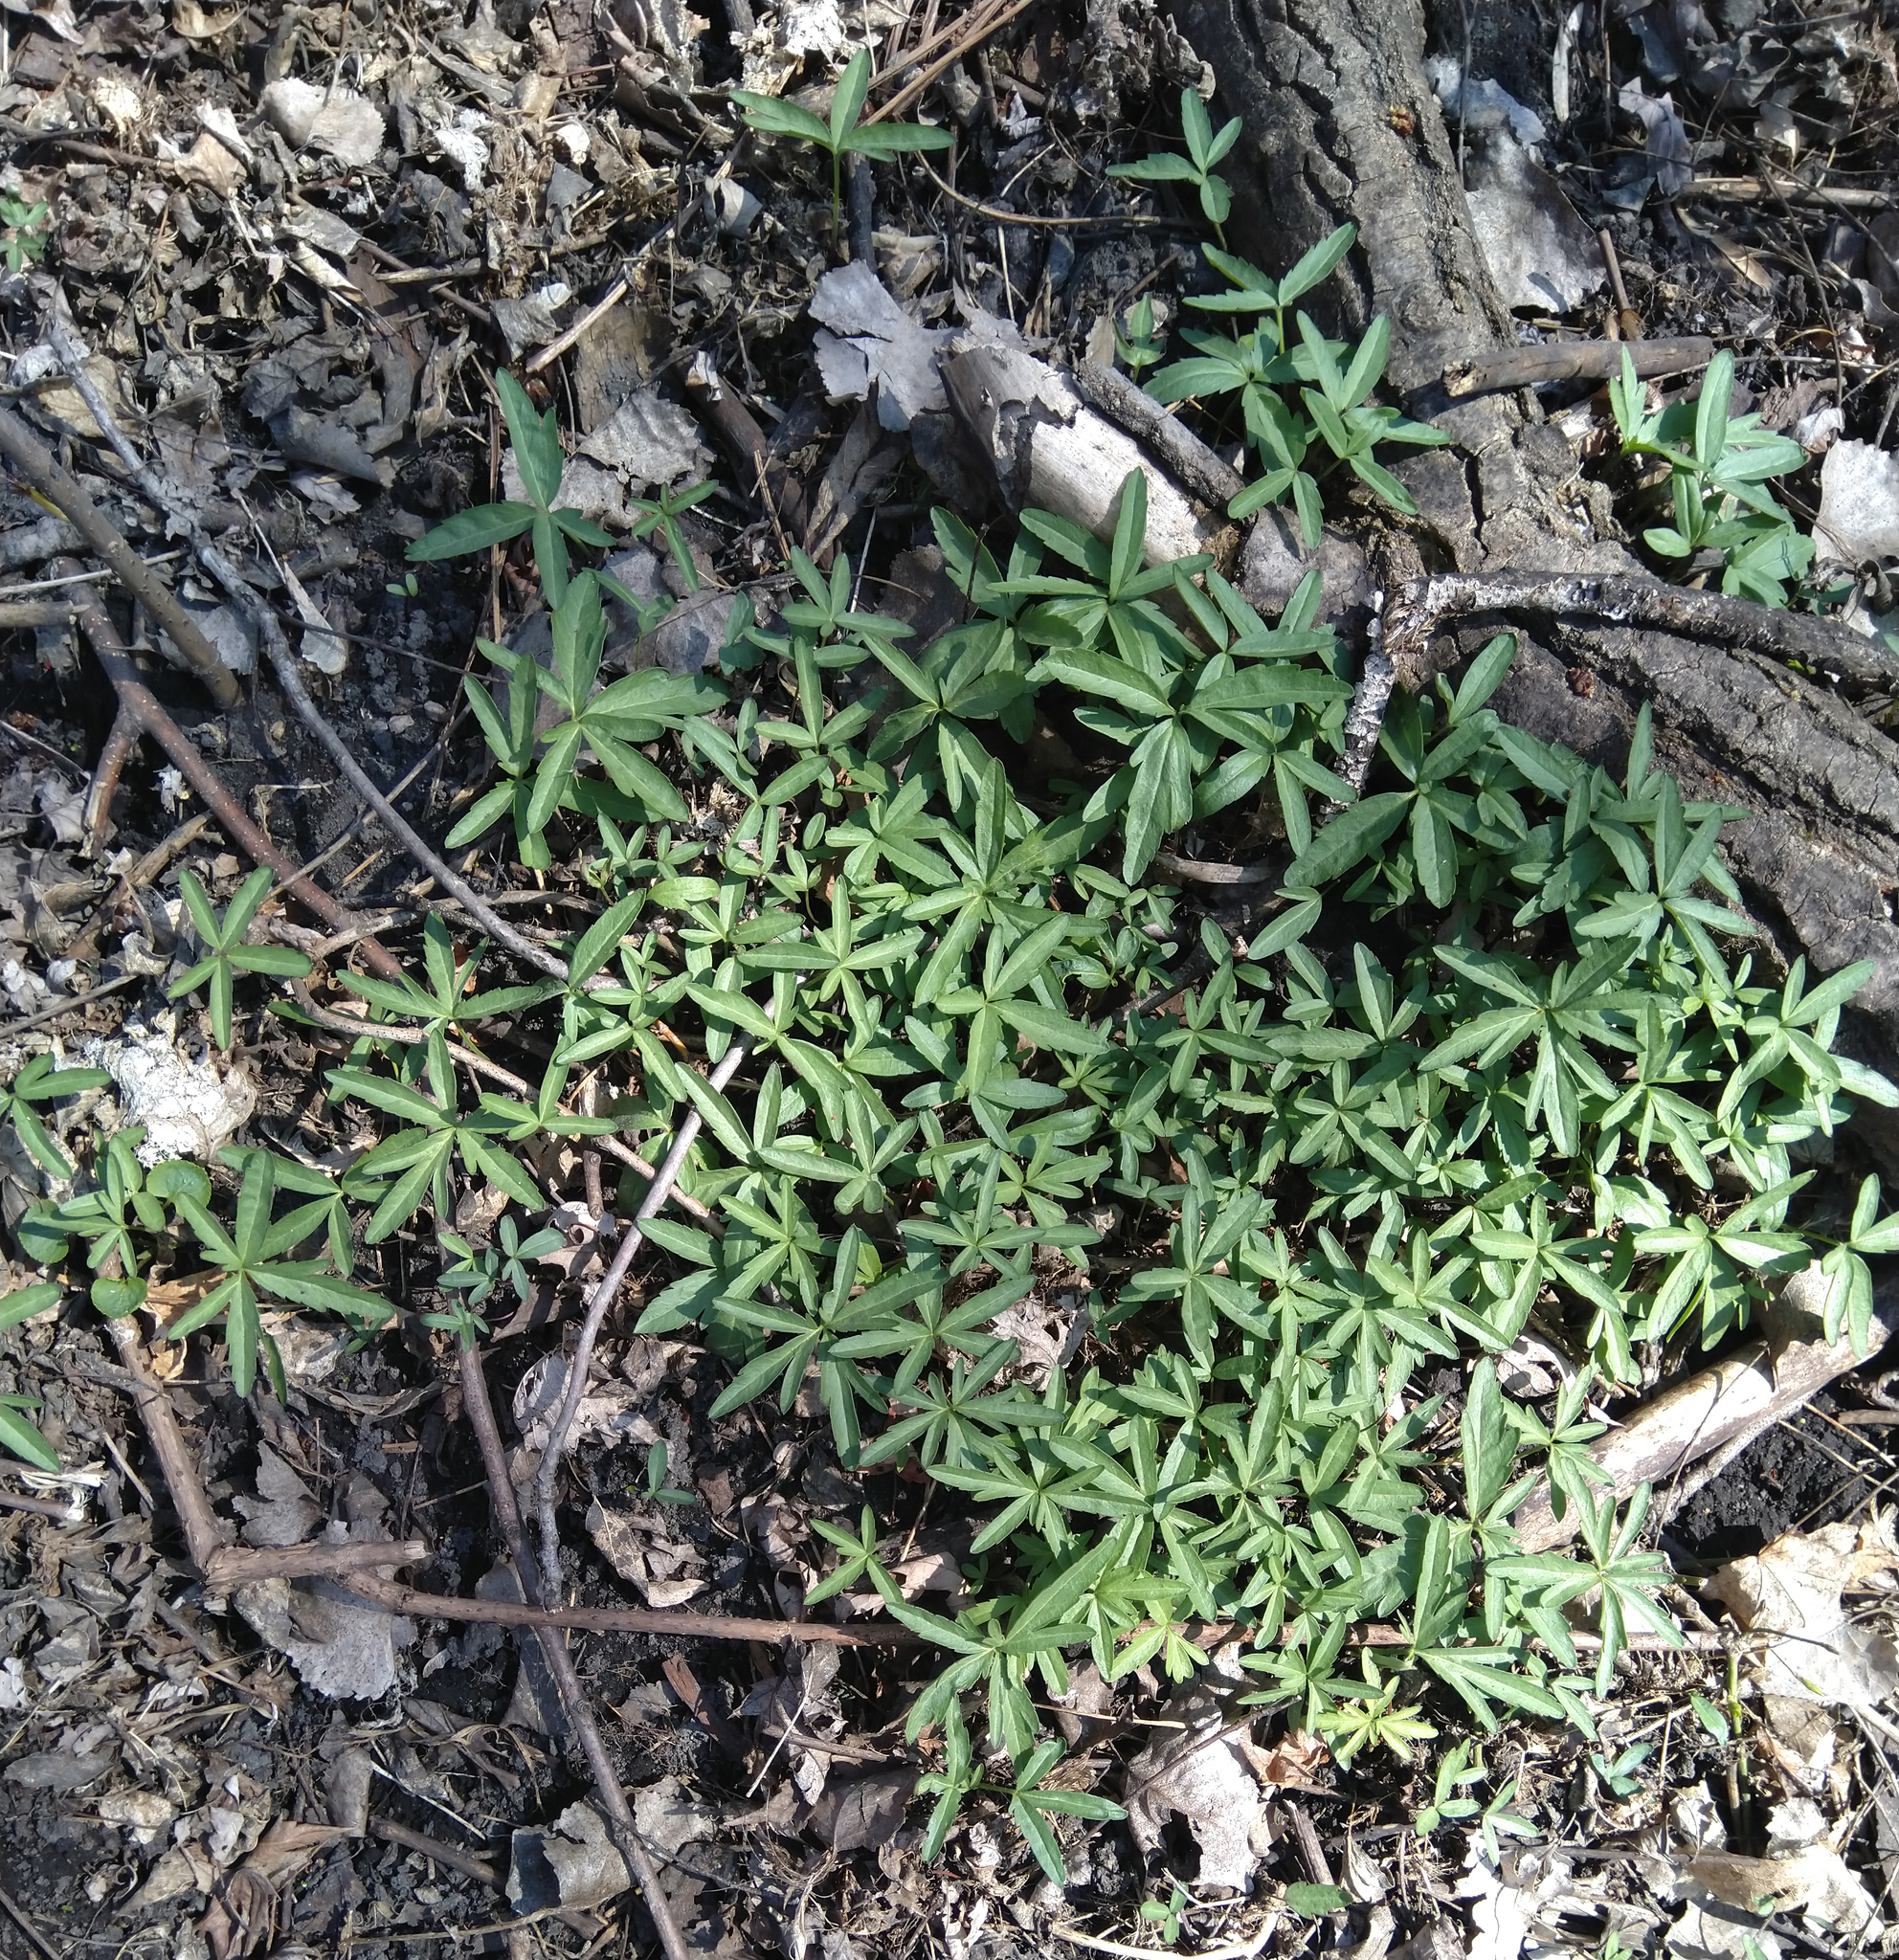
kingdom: Plantae
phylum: Tracheophyta
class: Magnoliopsida
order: Brassicales
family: Brassicaceae
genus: Cardamine
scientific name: Cardamine concatenata
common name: Cut-leaf toothcup
